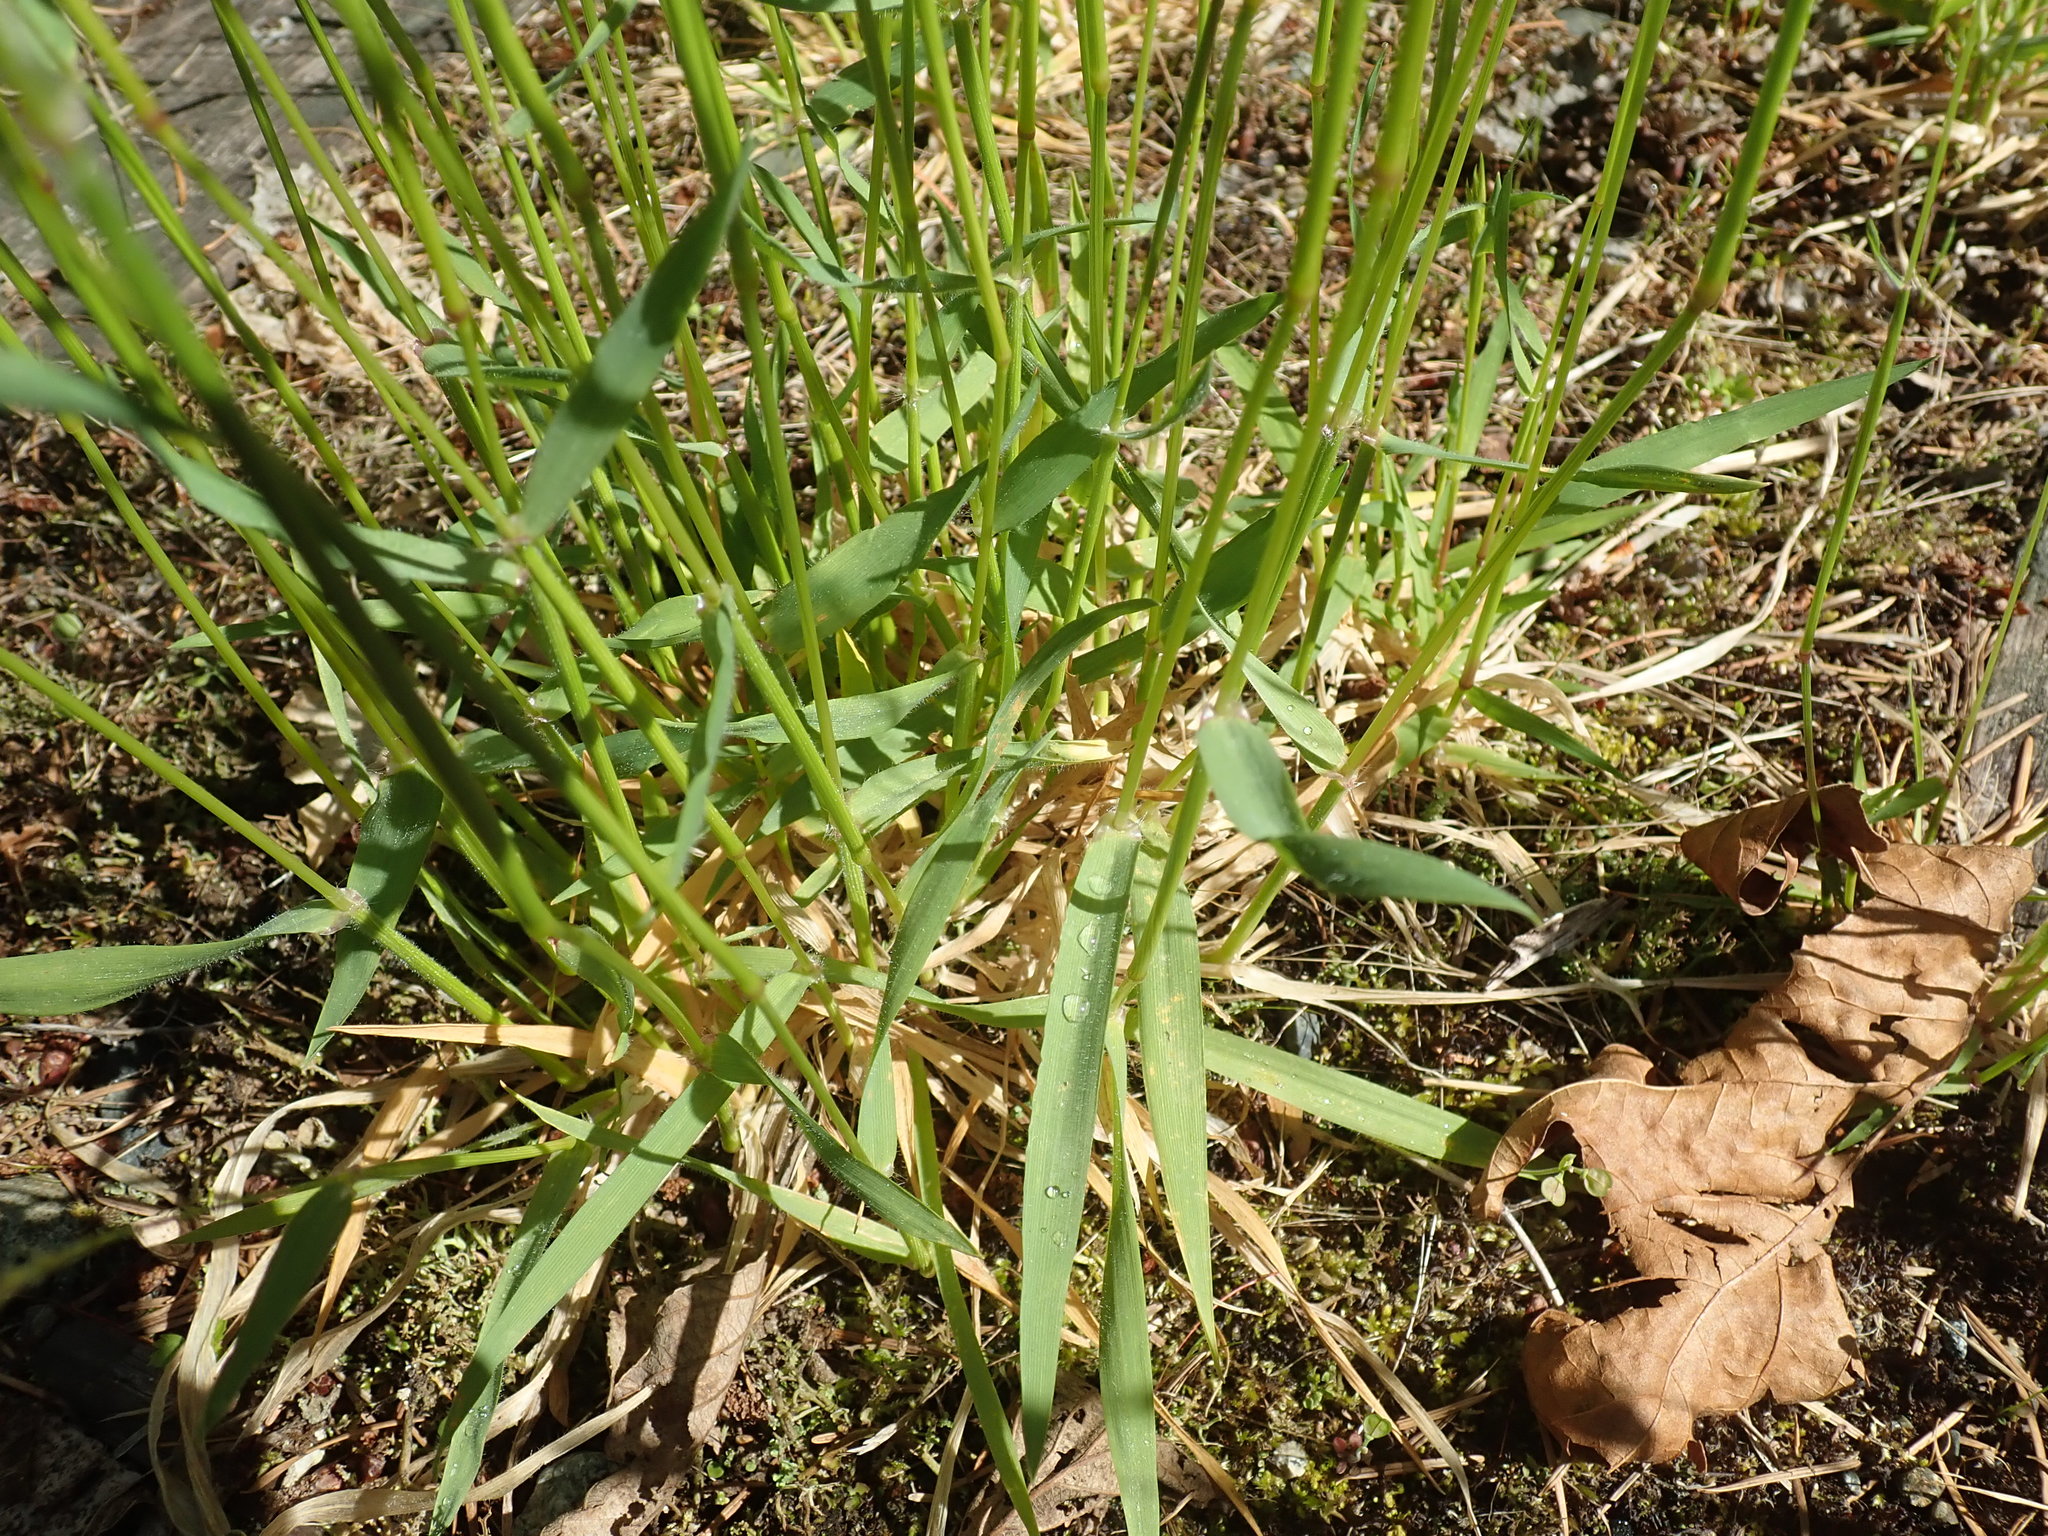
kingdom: Plantae
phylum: Tracheophyta
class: Liliopsida
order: Poales
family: Poaceae
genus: Anthoxanthum
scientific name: Anthoxanthum odoratum
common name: Sweet vernalgrass
